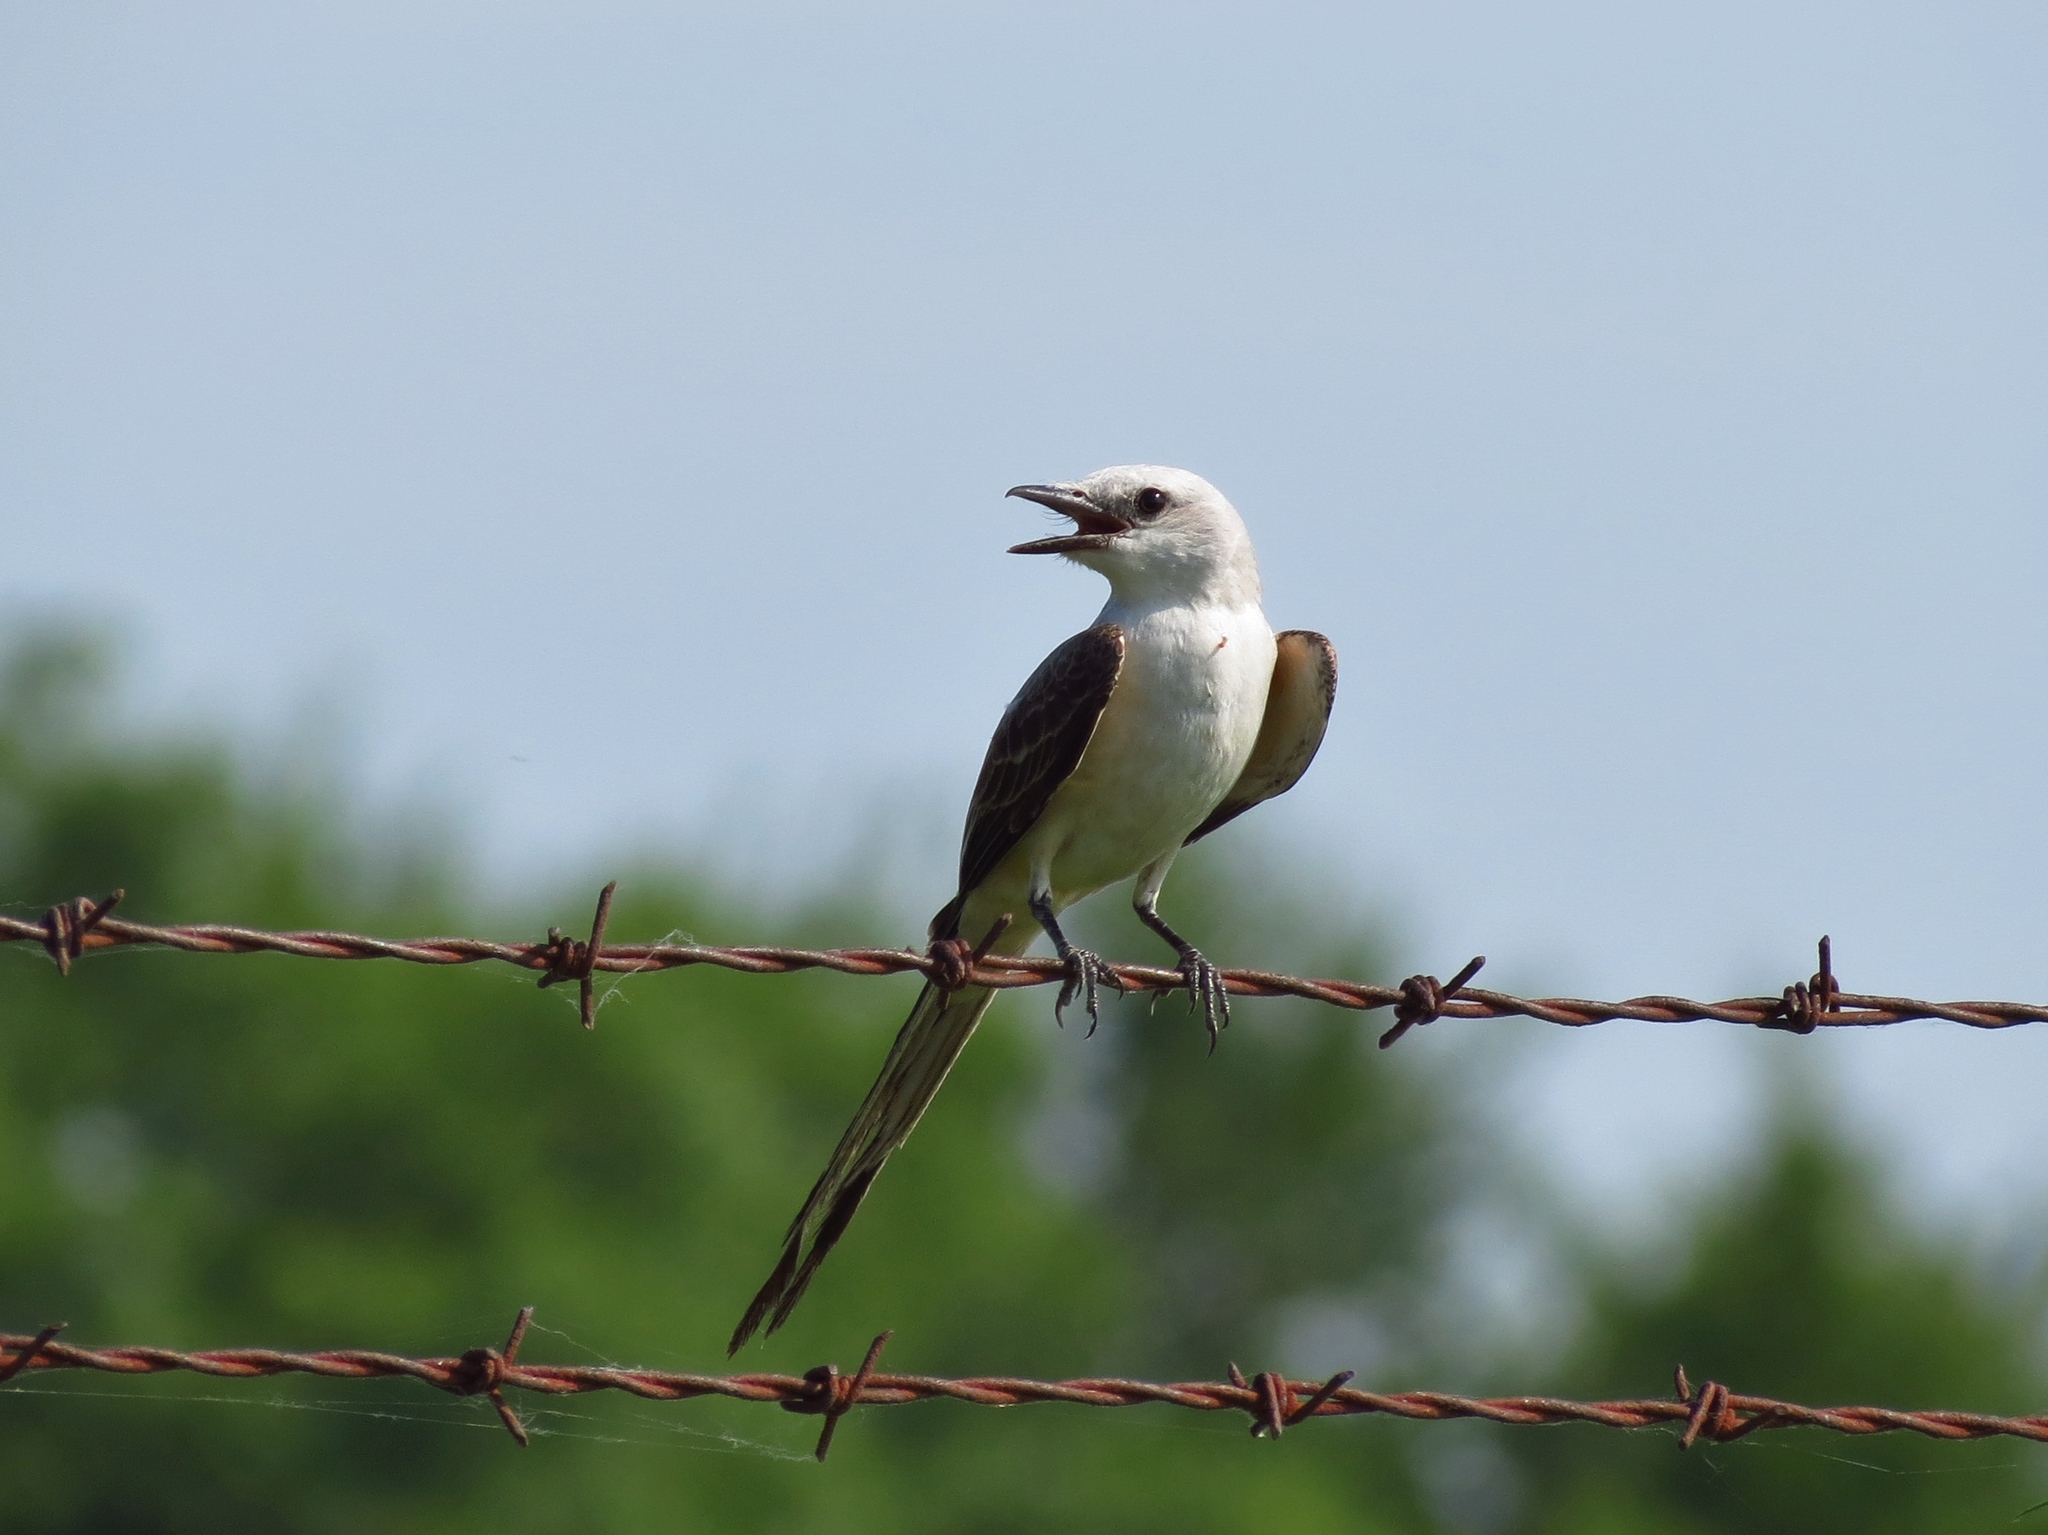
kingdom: Animalia
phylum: Chordata
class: Aves
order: Passeriformes
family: Tyrannidae
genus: Tyrannus
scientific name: Tyrannus forficatus
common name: Scissor-tailed flycatcher
